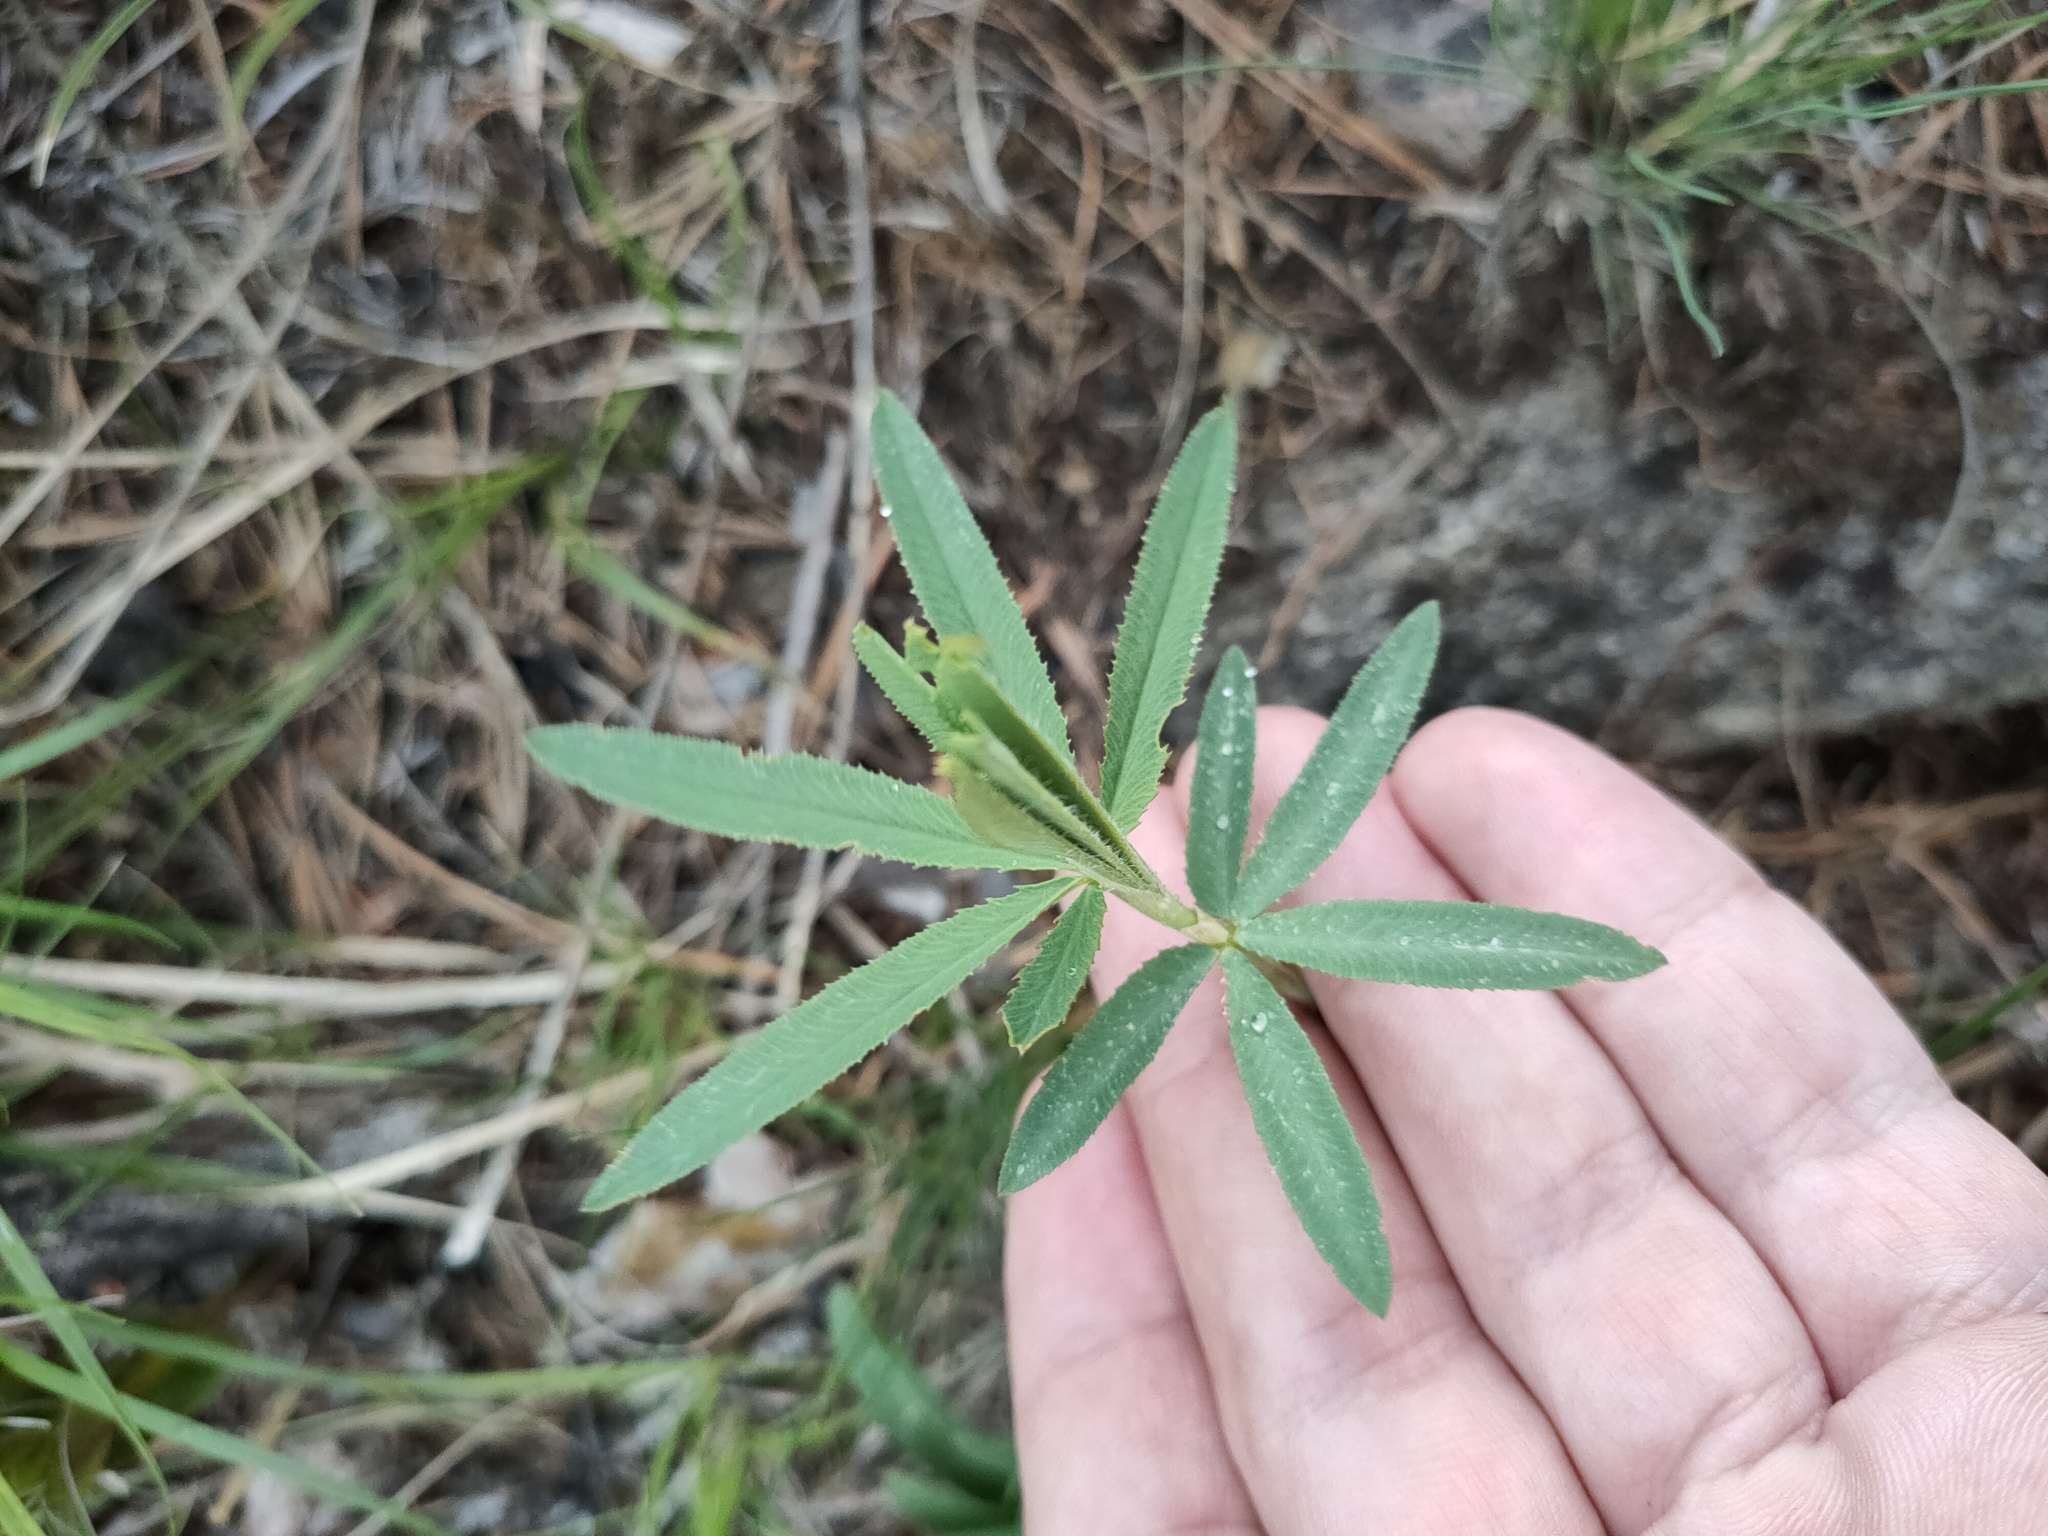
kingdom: Plantae
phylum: Tracheophyta
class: Magnoliopsida
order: Fabales
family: Fabaceae
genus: Trifolium
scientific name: Trifolium lupinaster
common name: Lupine clover
